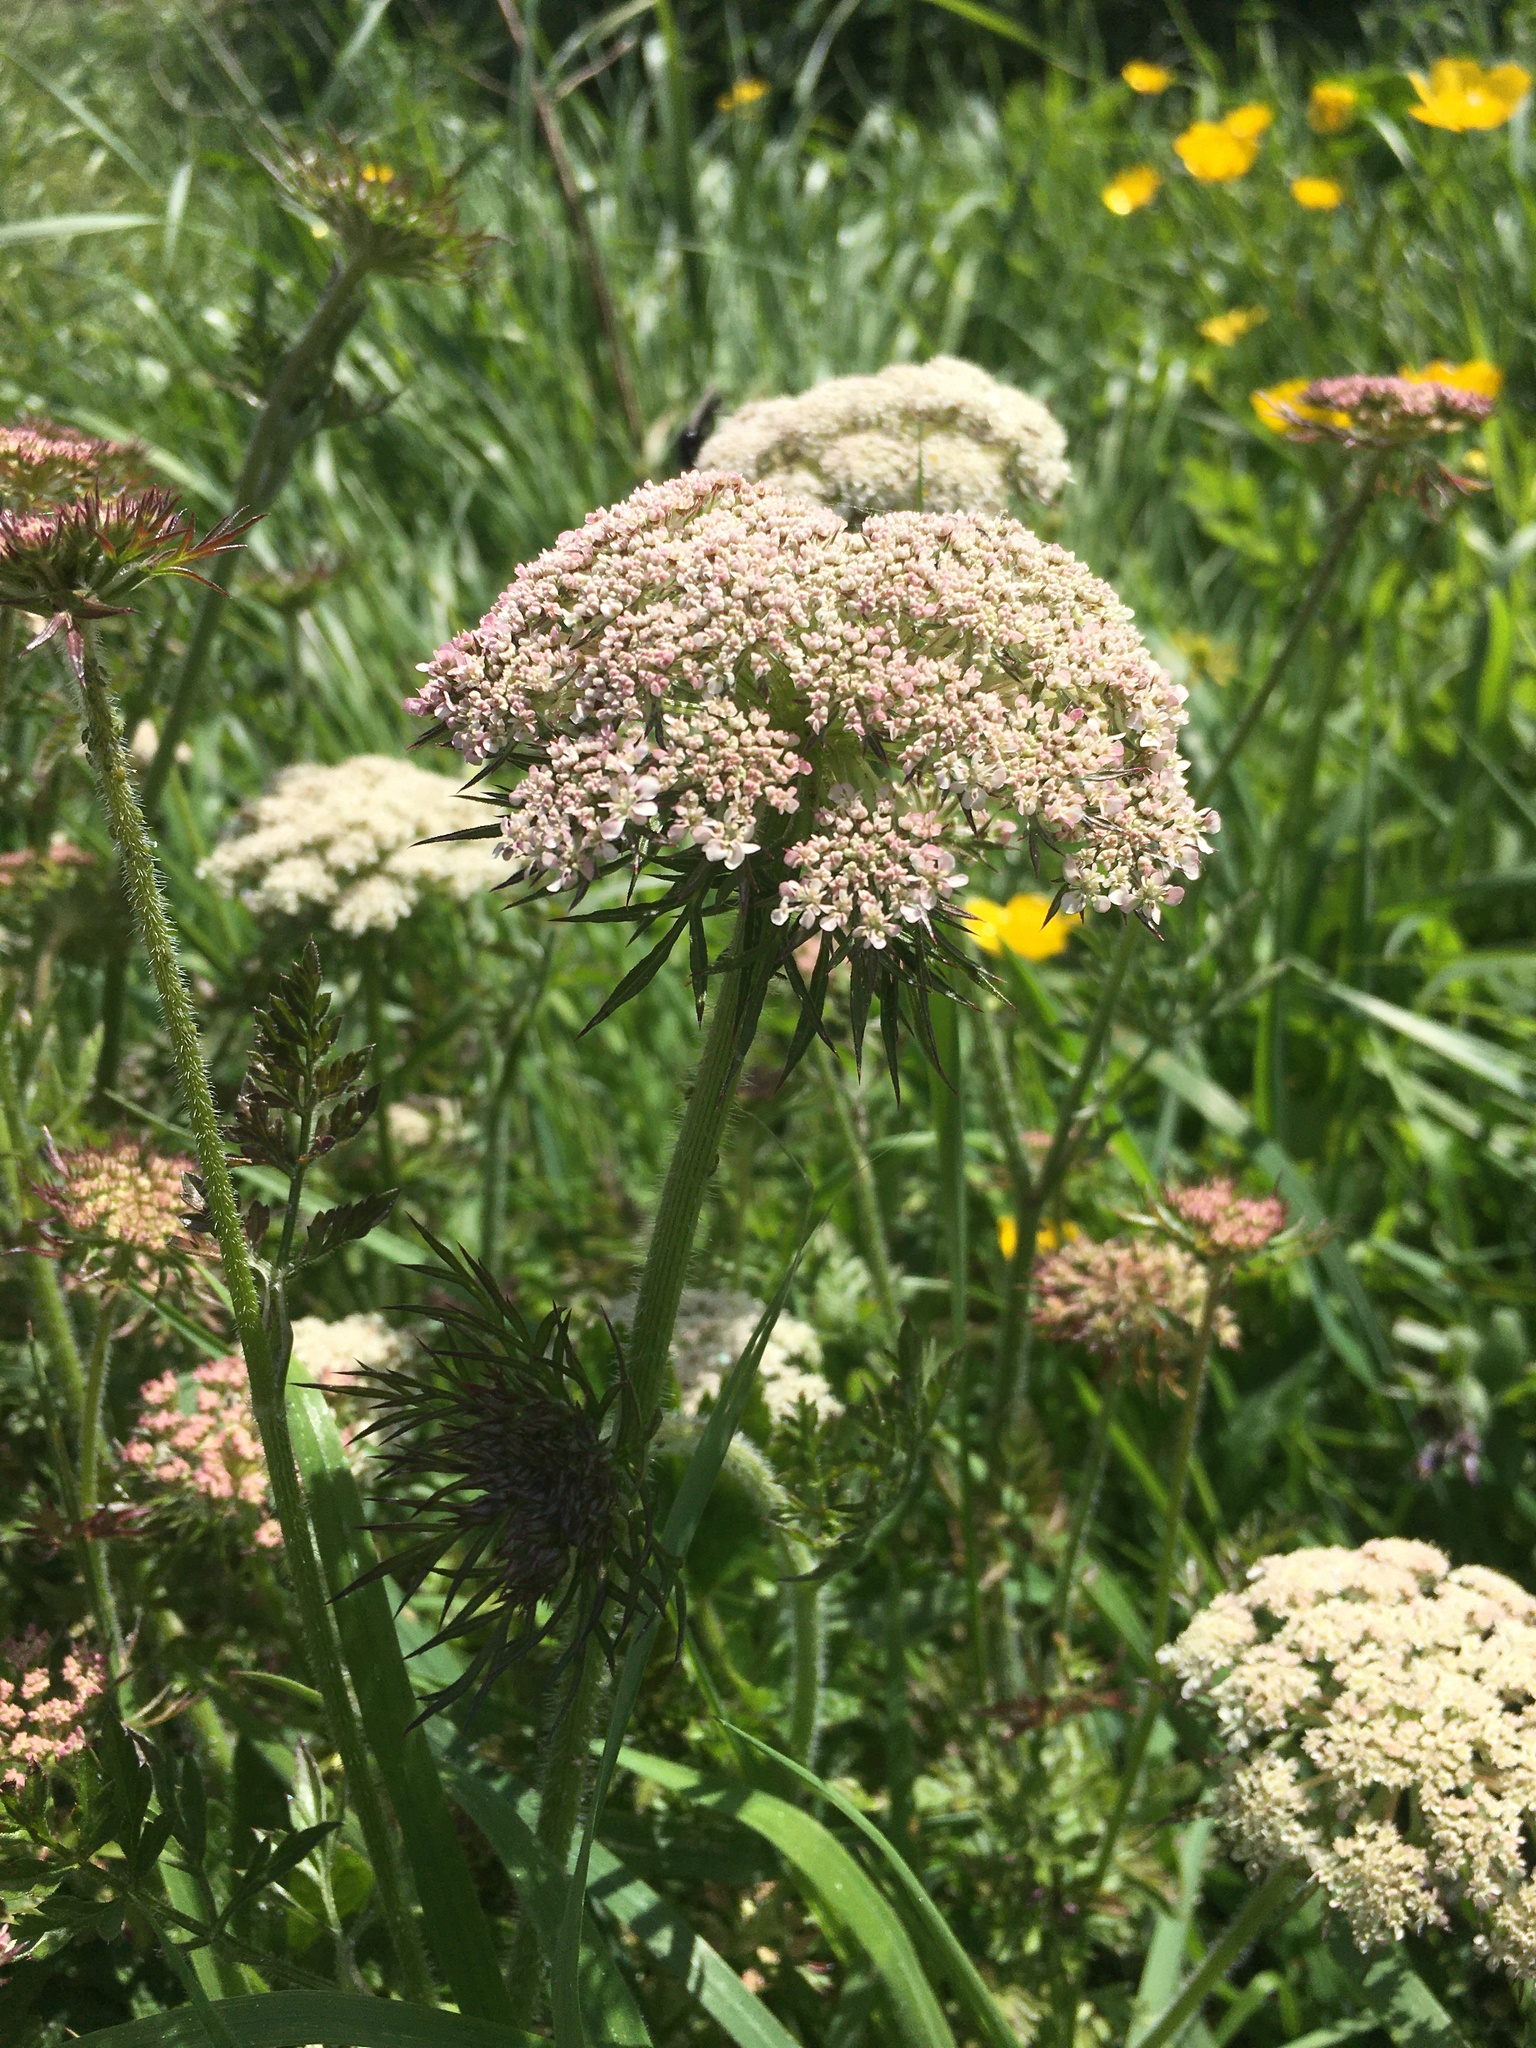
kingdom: Plantae
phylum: Tracheophyta
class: Magnoliopsida
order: Apiales
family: Apiaceae
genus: Daucus
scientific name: Daucus carota
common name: Wild carrot
